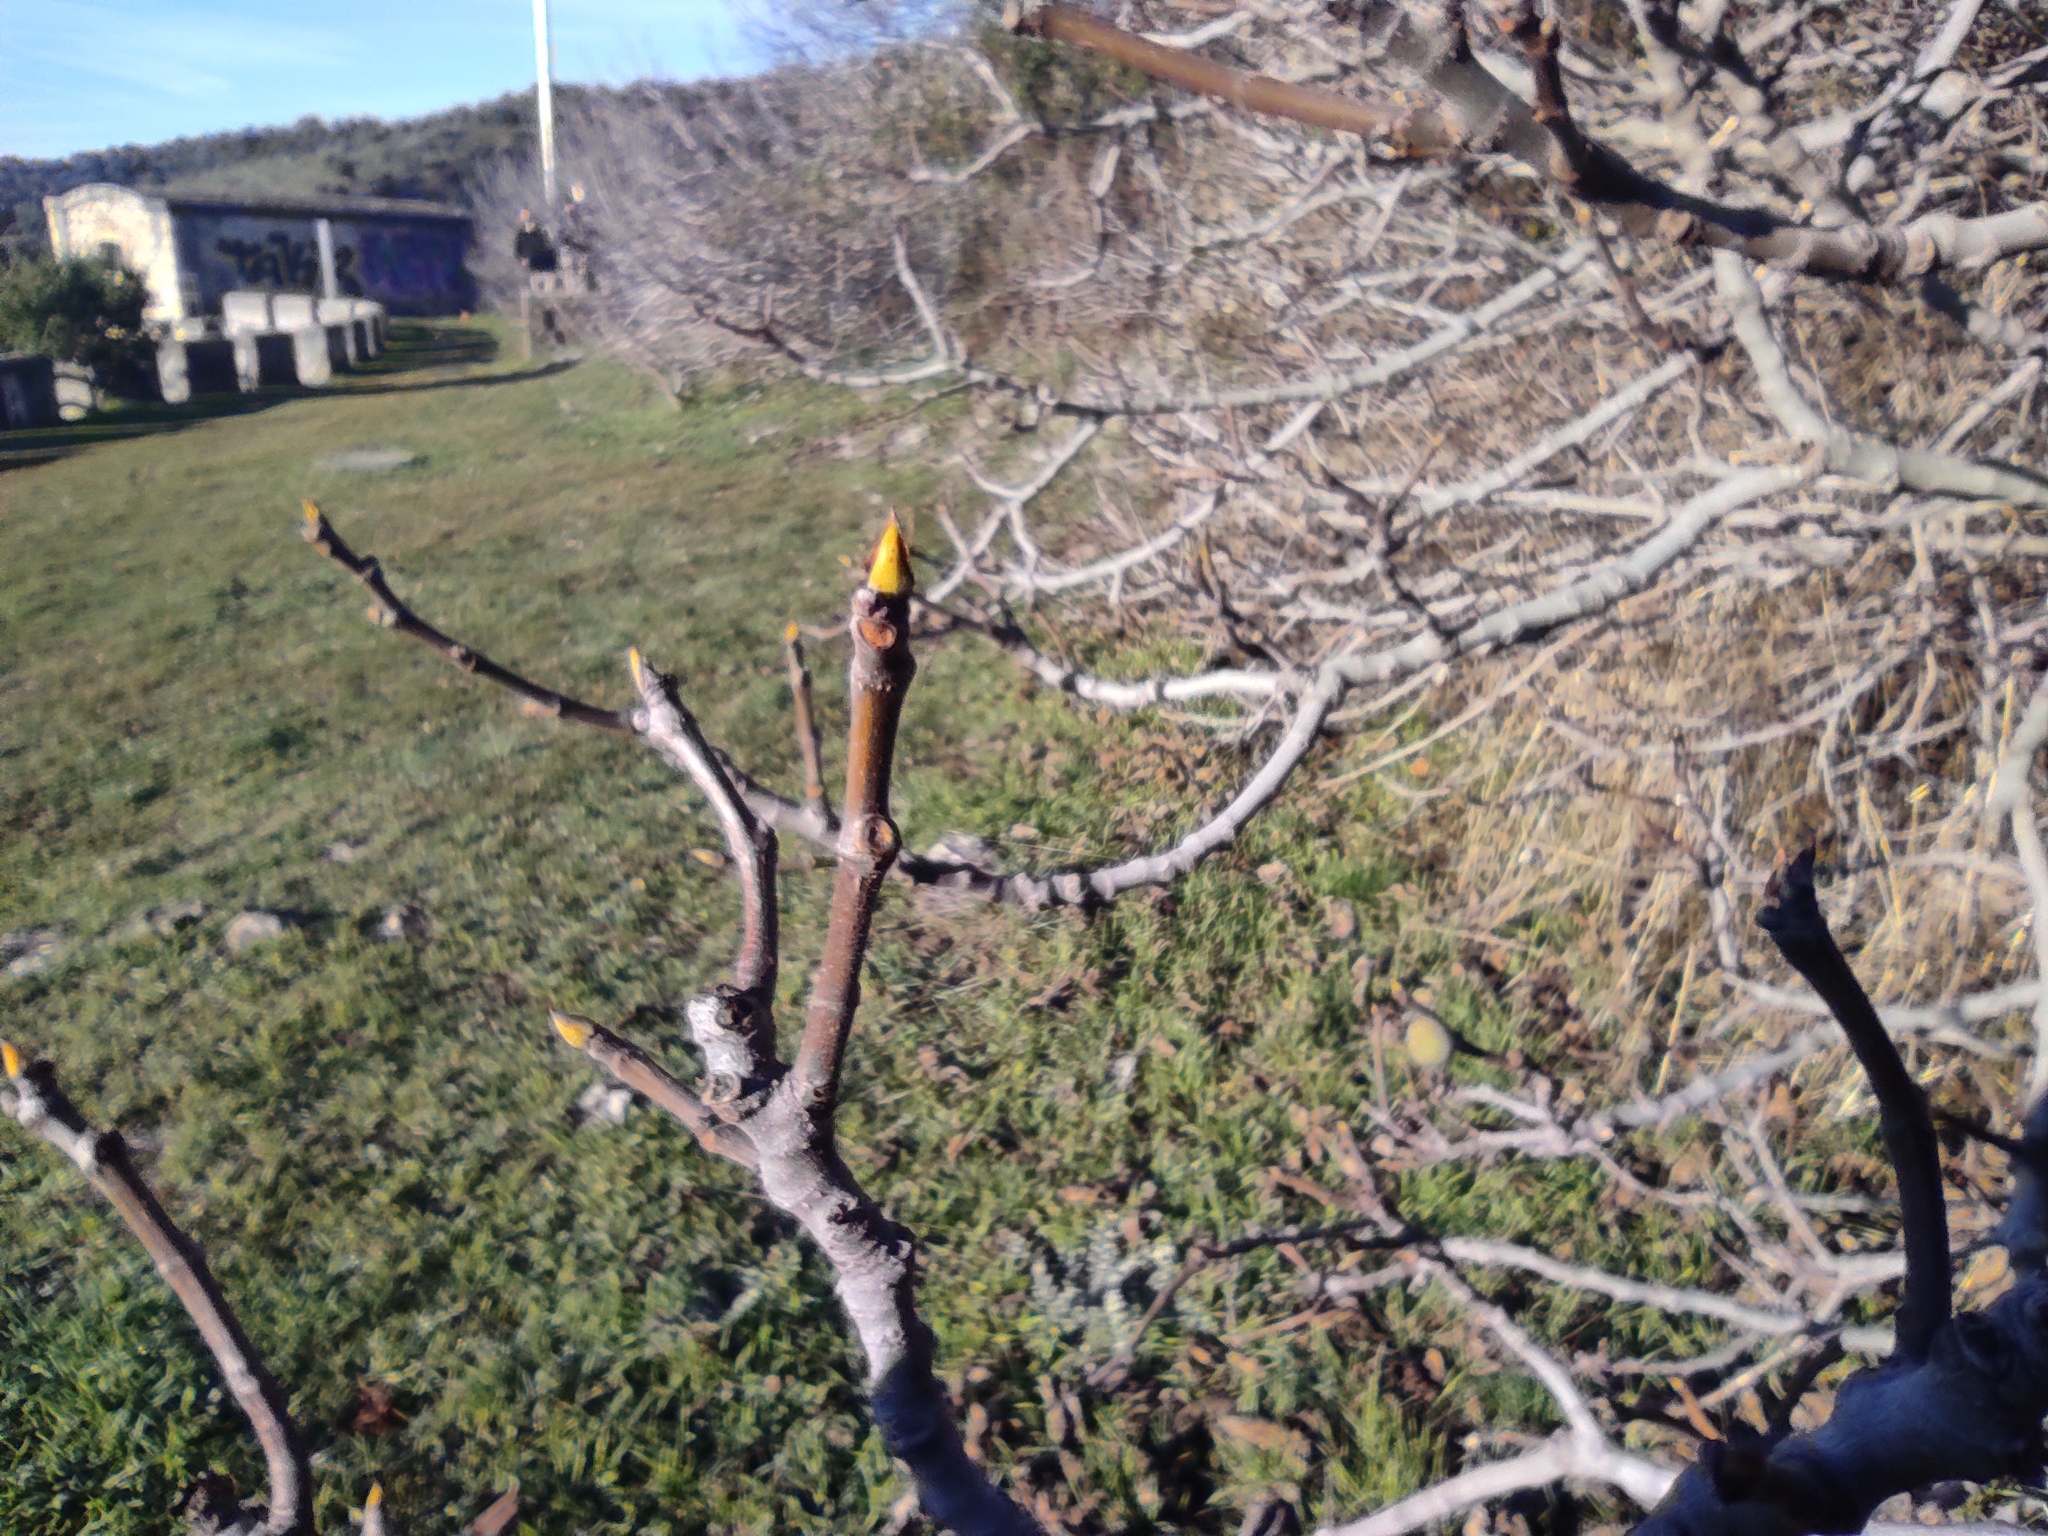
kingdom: Plantae
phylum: Tracheophyta
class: Magnoliopsida
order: Rosales
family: Moraceae
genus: Ficus
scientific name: Ficus carica
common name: Fig
